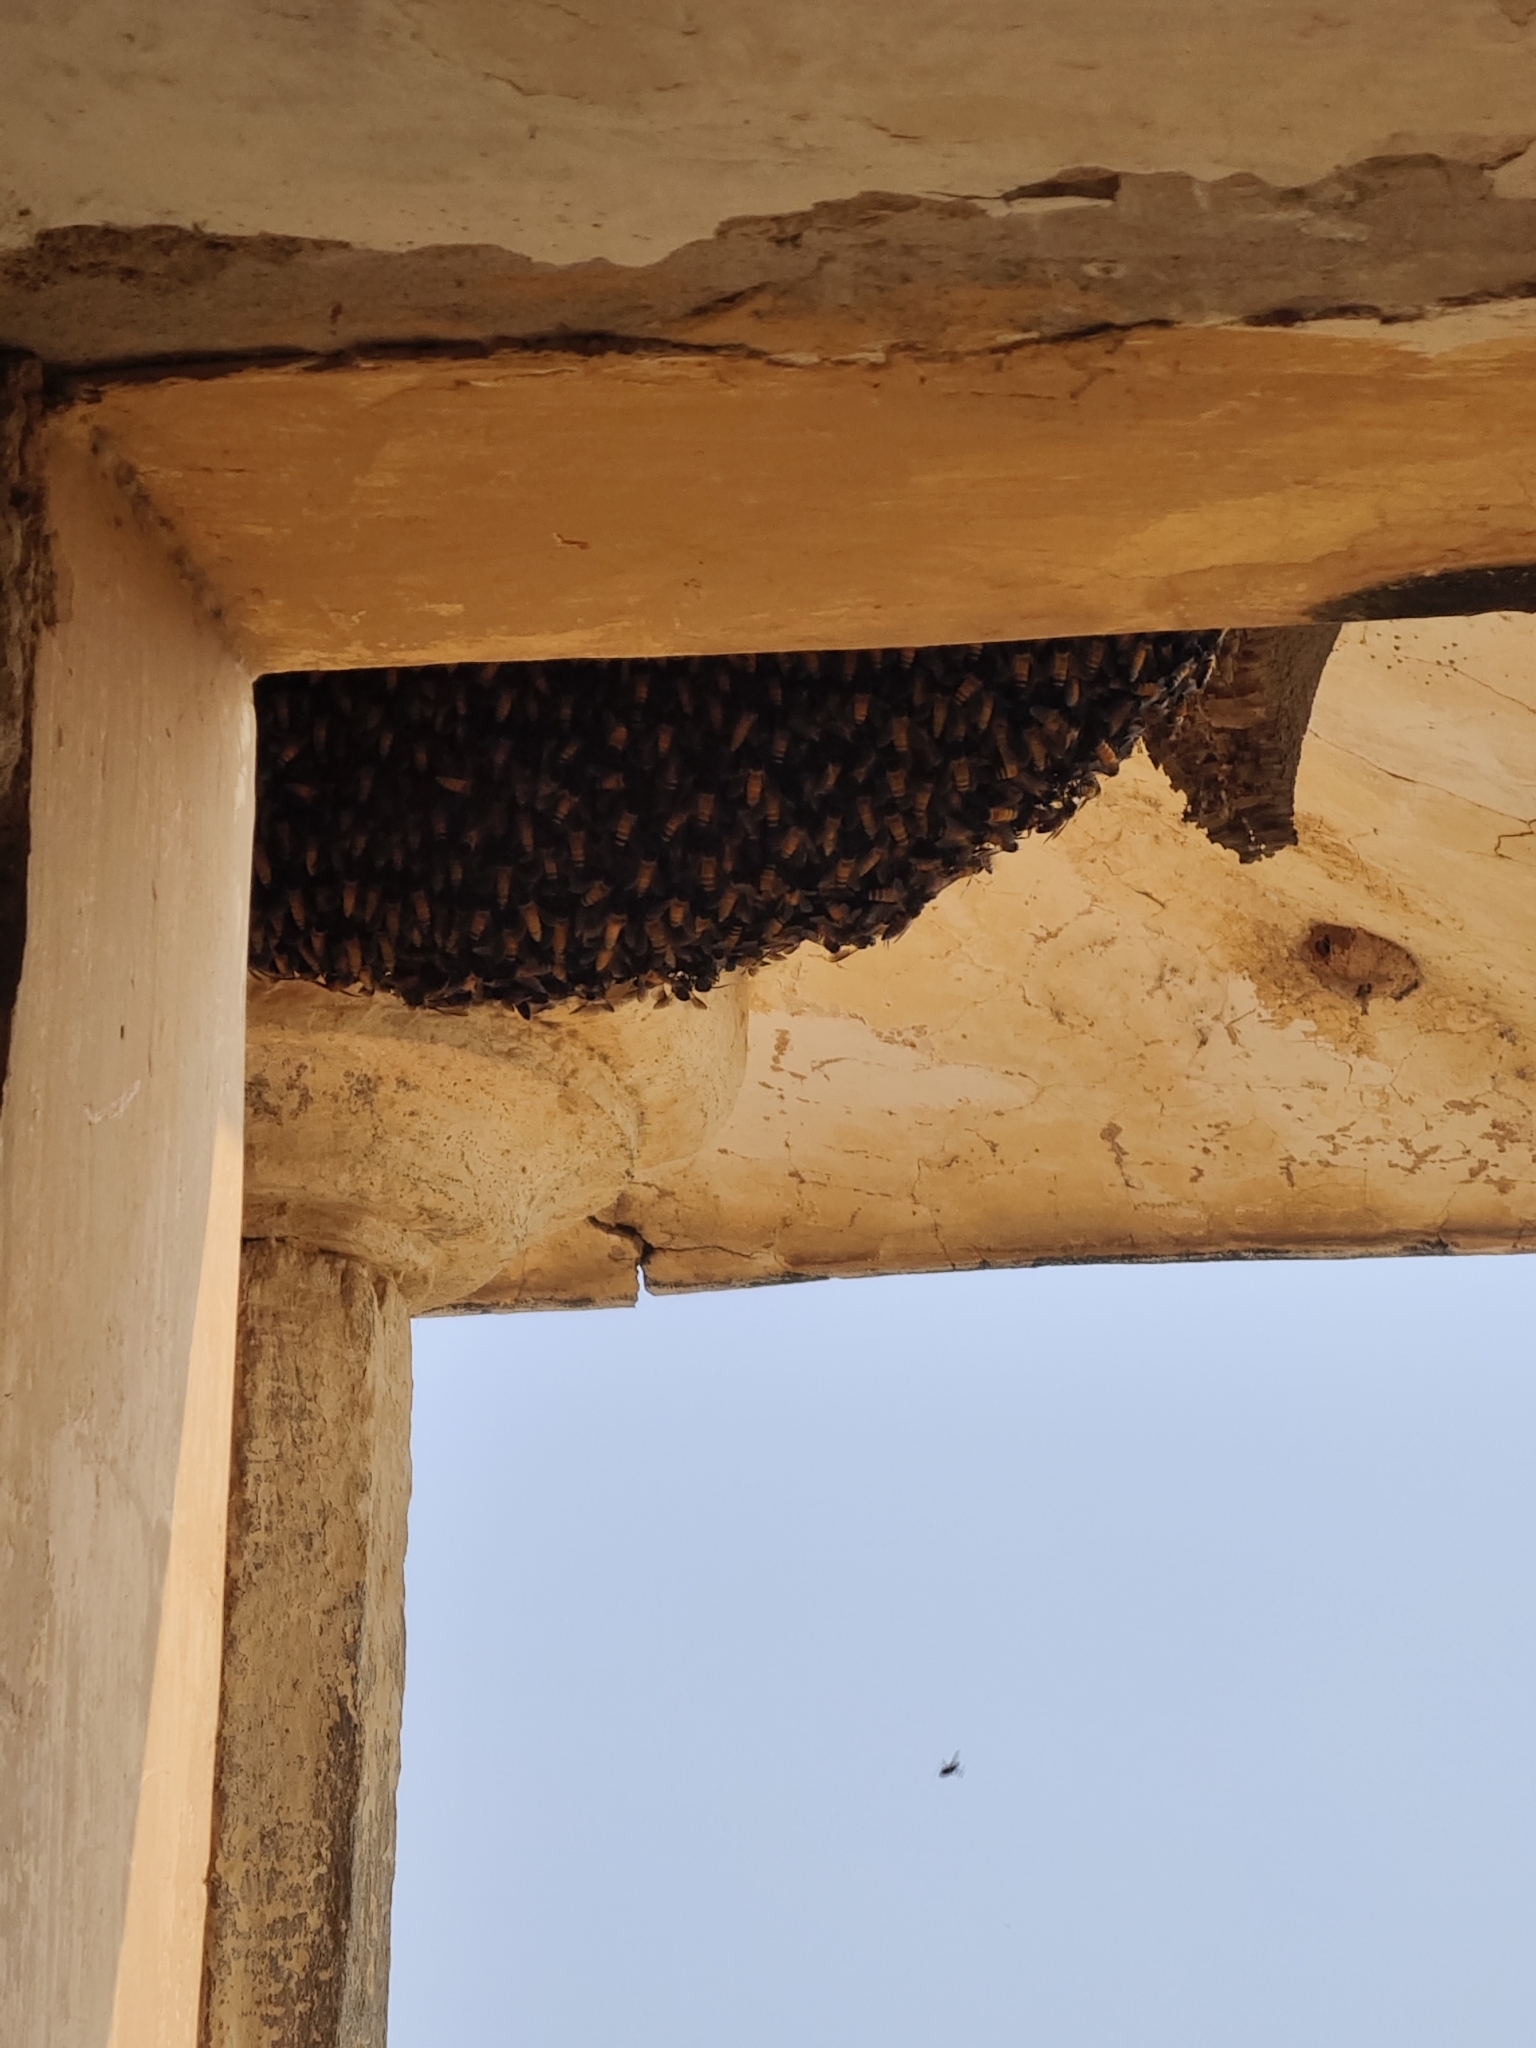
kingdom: Animalia
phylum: Arthropoda
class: Insecta
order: Hymenoptera
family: Apidae
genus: Apis
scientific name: Apis dorsata
